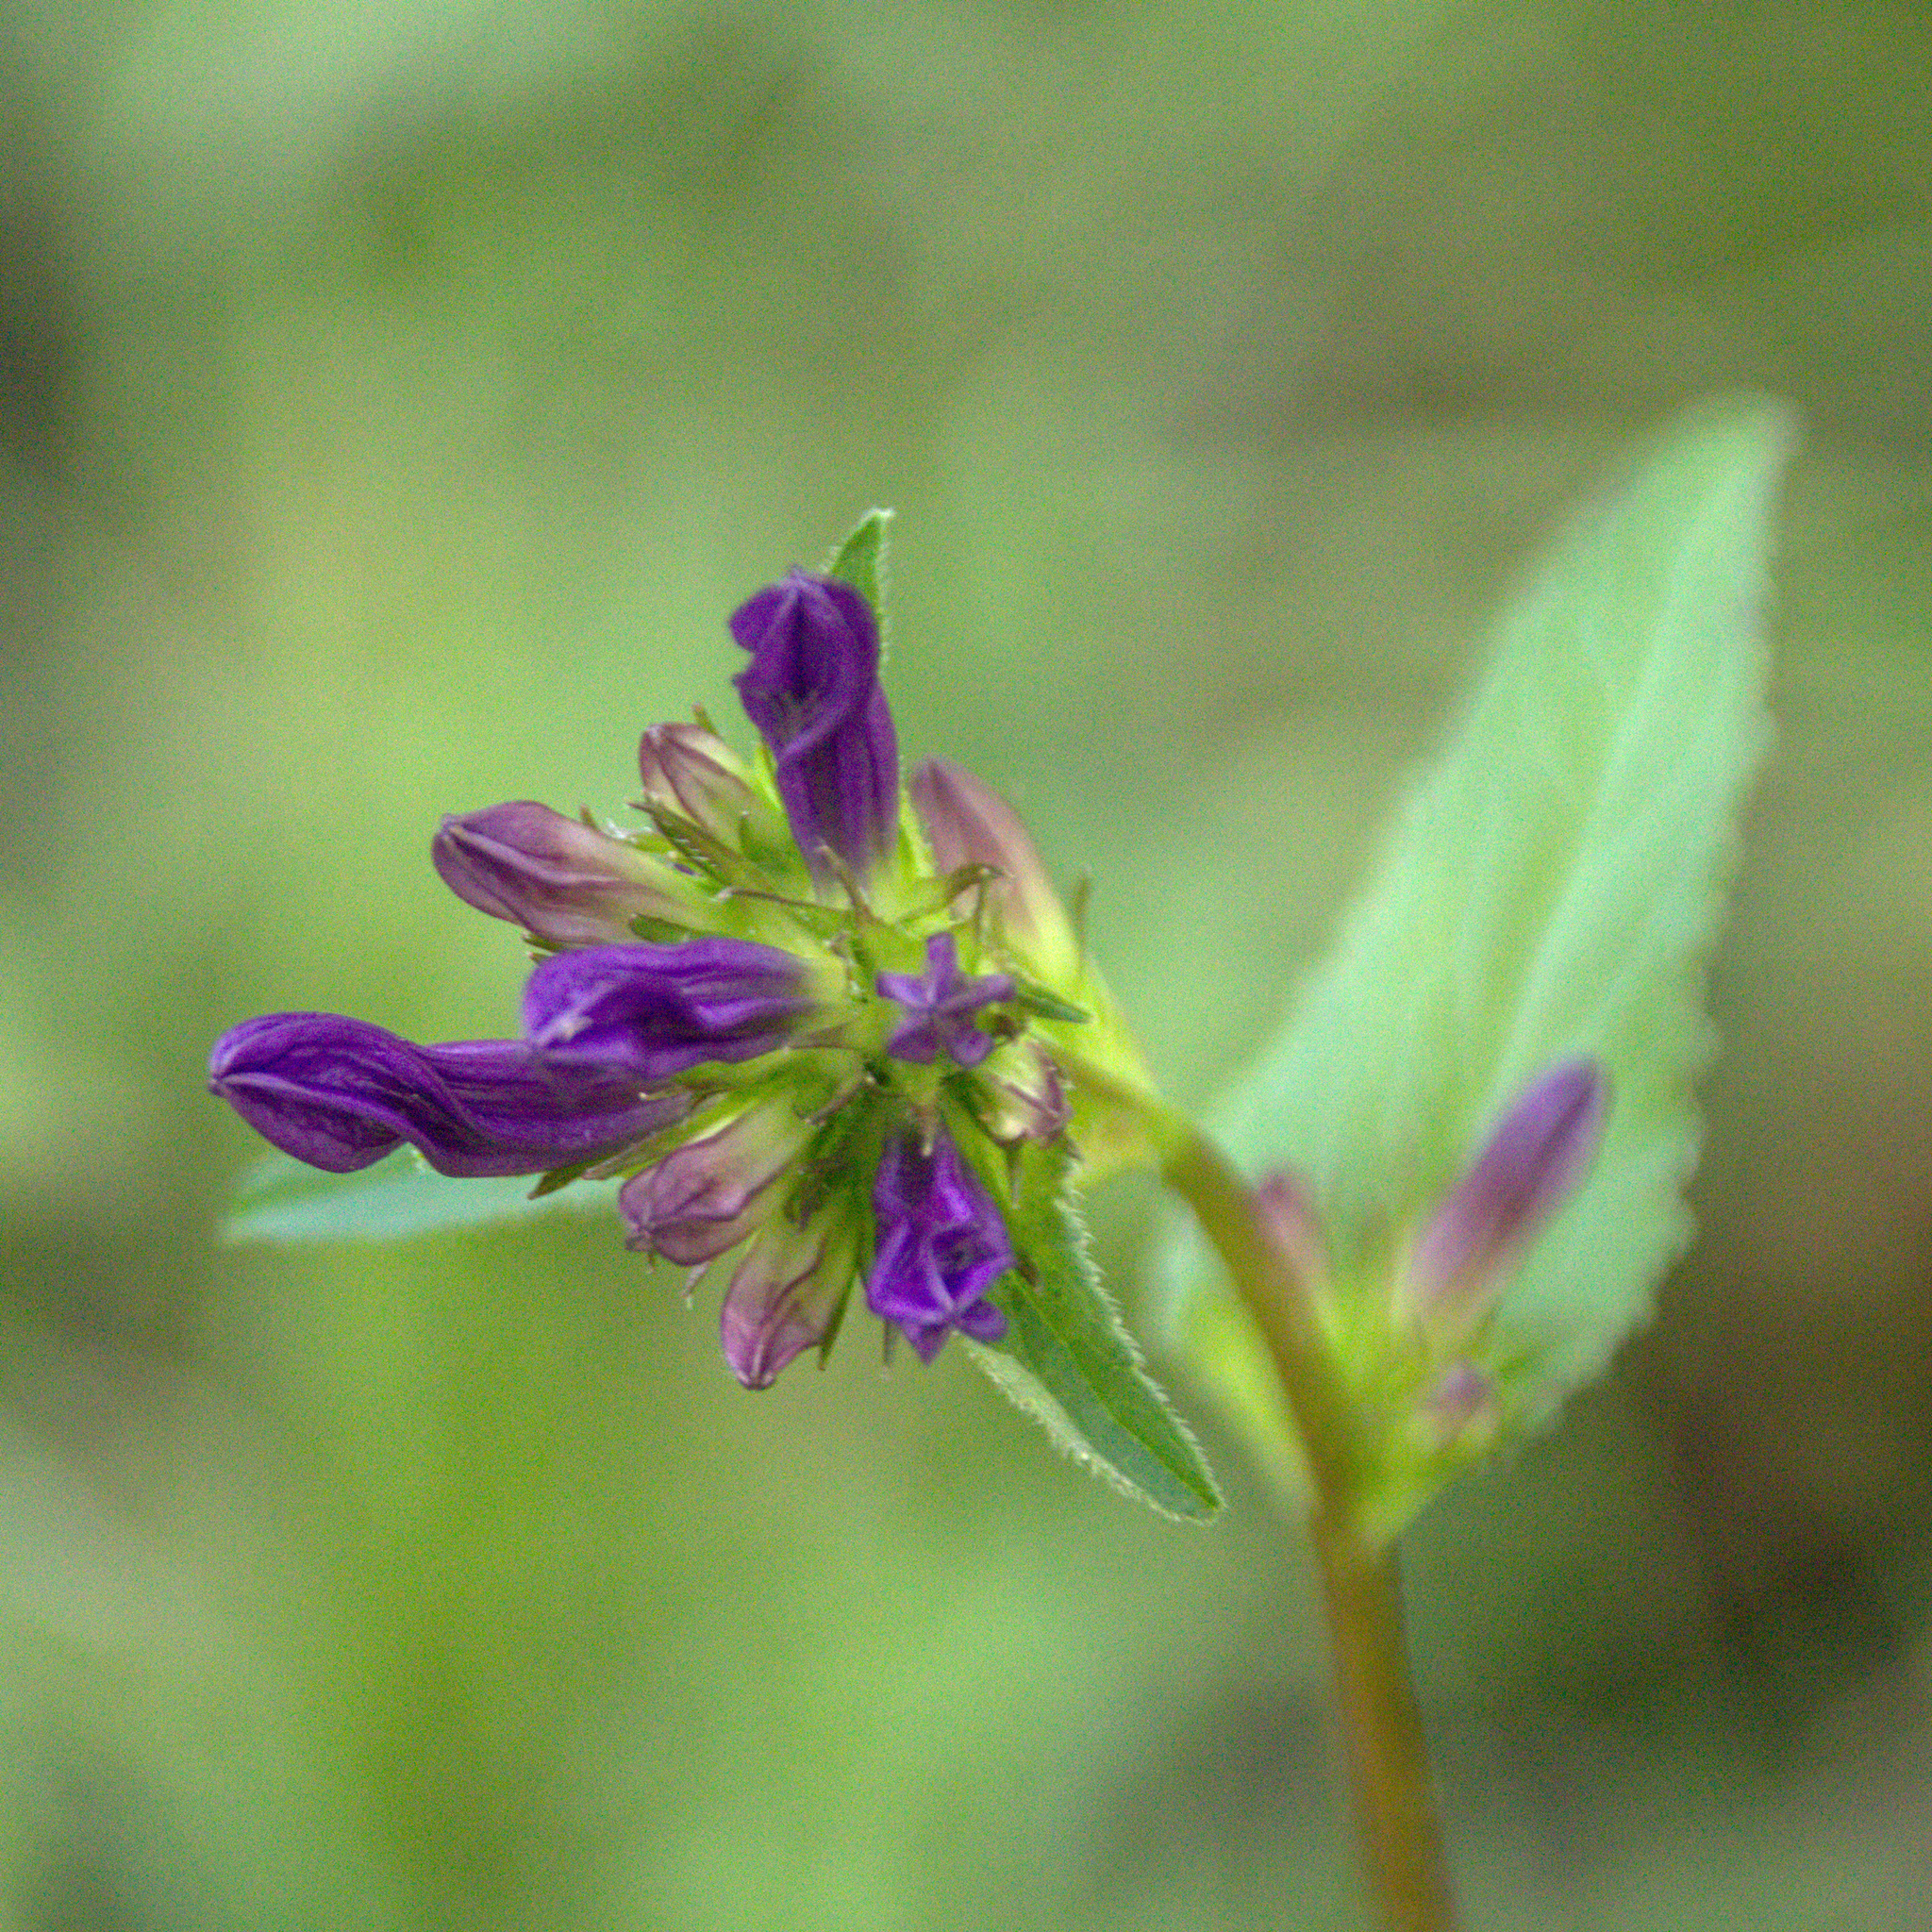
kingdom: Plantae
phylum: Tracheophyta
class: Magnoliopsida
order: Asterales
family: Campanulaceae
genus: Campanula
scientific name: Campanula glomerata
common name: Clustered bellflower
